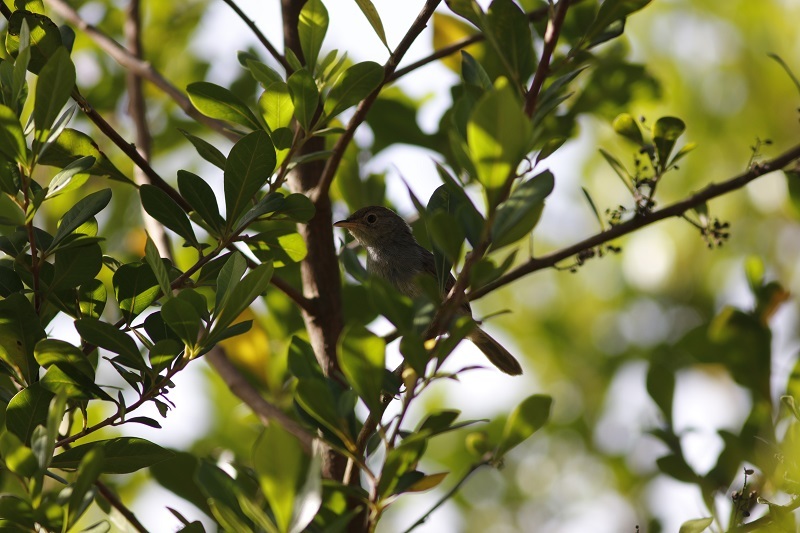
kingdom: Animalia
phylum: Chordata
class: Aves
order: Passeriformes
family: Cisticolidae
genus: Cisticola
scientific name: Cisticola fulvicapilla
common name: Neddicky
